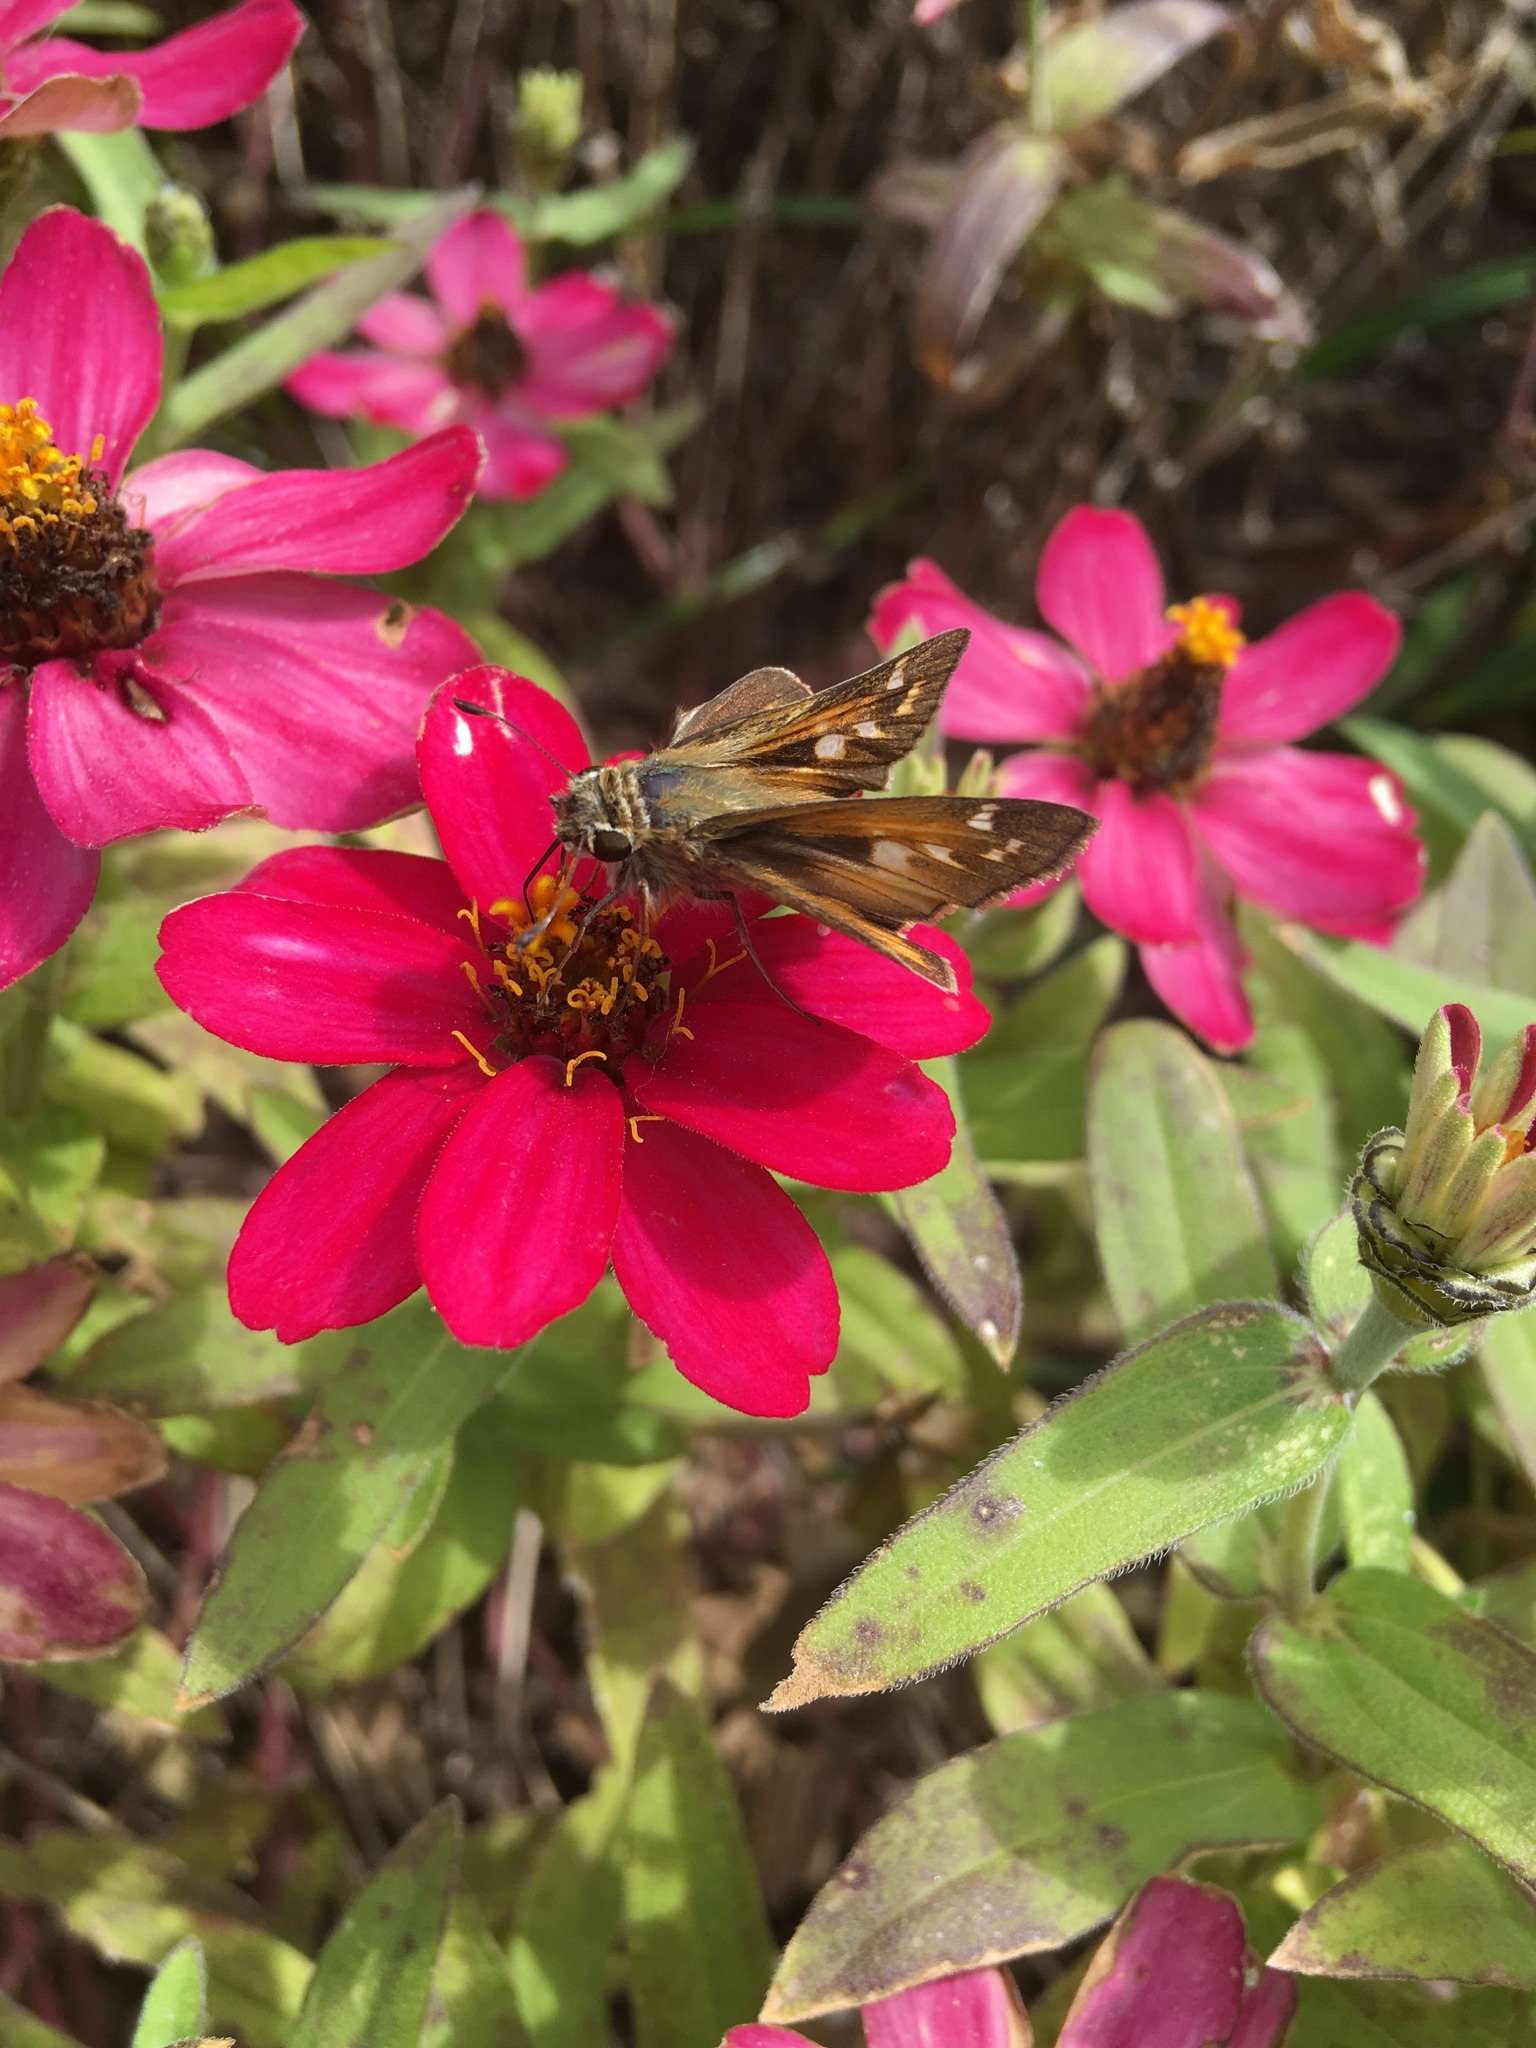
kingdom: Animalia
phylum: Arthropoda
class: Insecta
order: Lepidoptera
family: Hesperiidae
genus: Atalopedes
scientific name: Atalopedes
